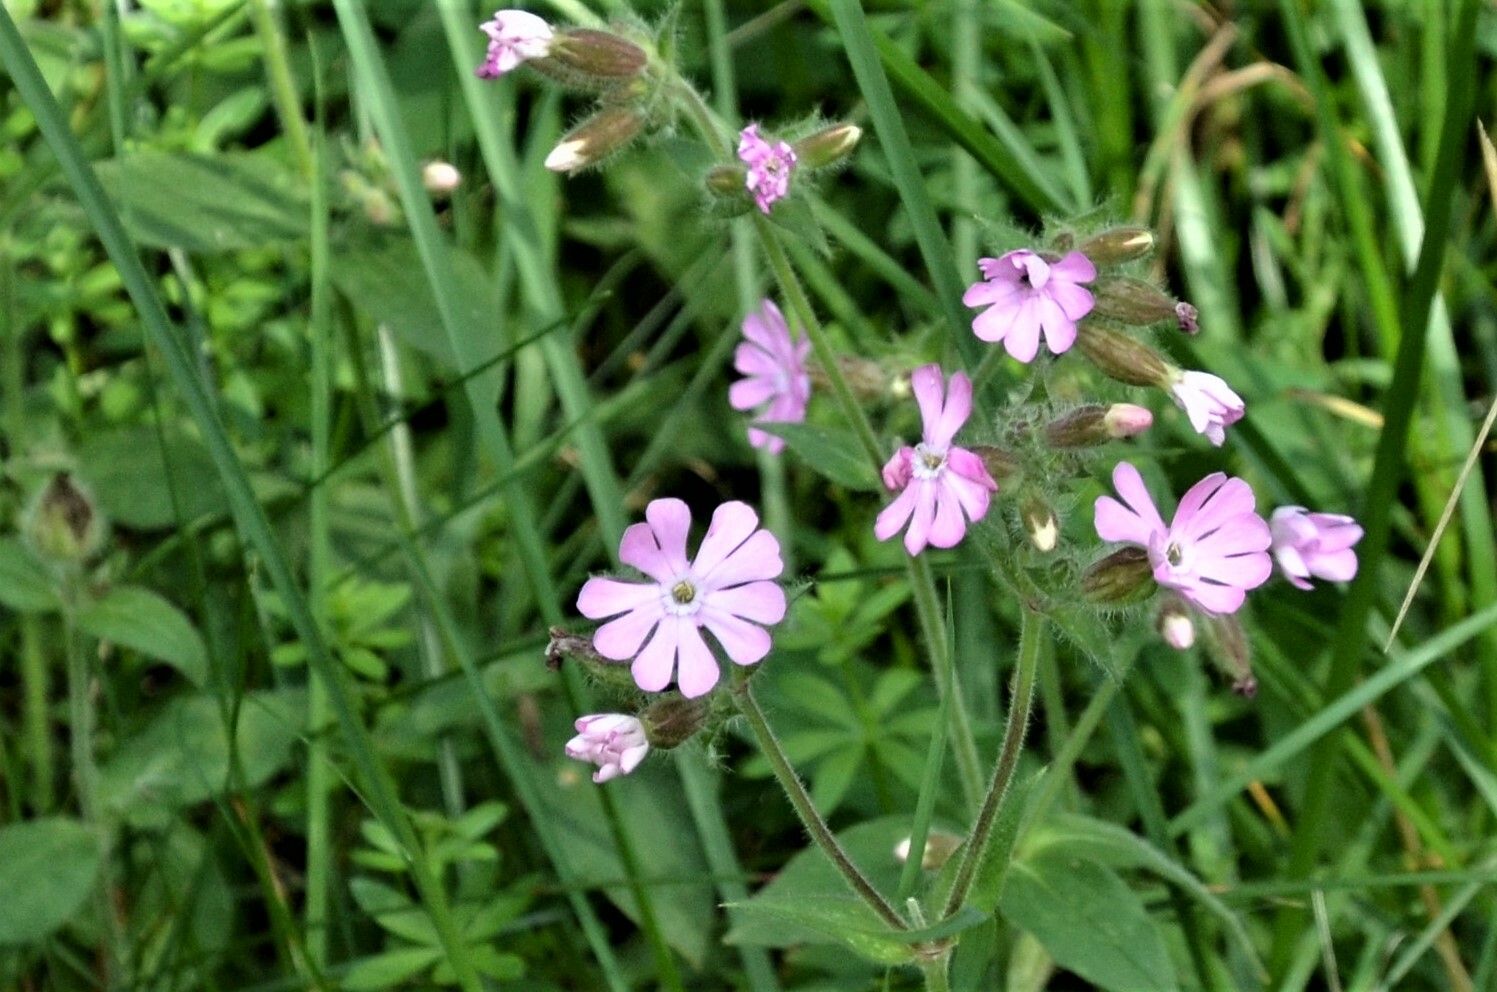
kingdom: Plantae
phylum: Tracheophyta
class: Magnoliopsida
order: Caryophyllales
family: Caryophyllaceae
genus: Silene
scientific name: Silene dioica
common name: Red campion
